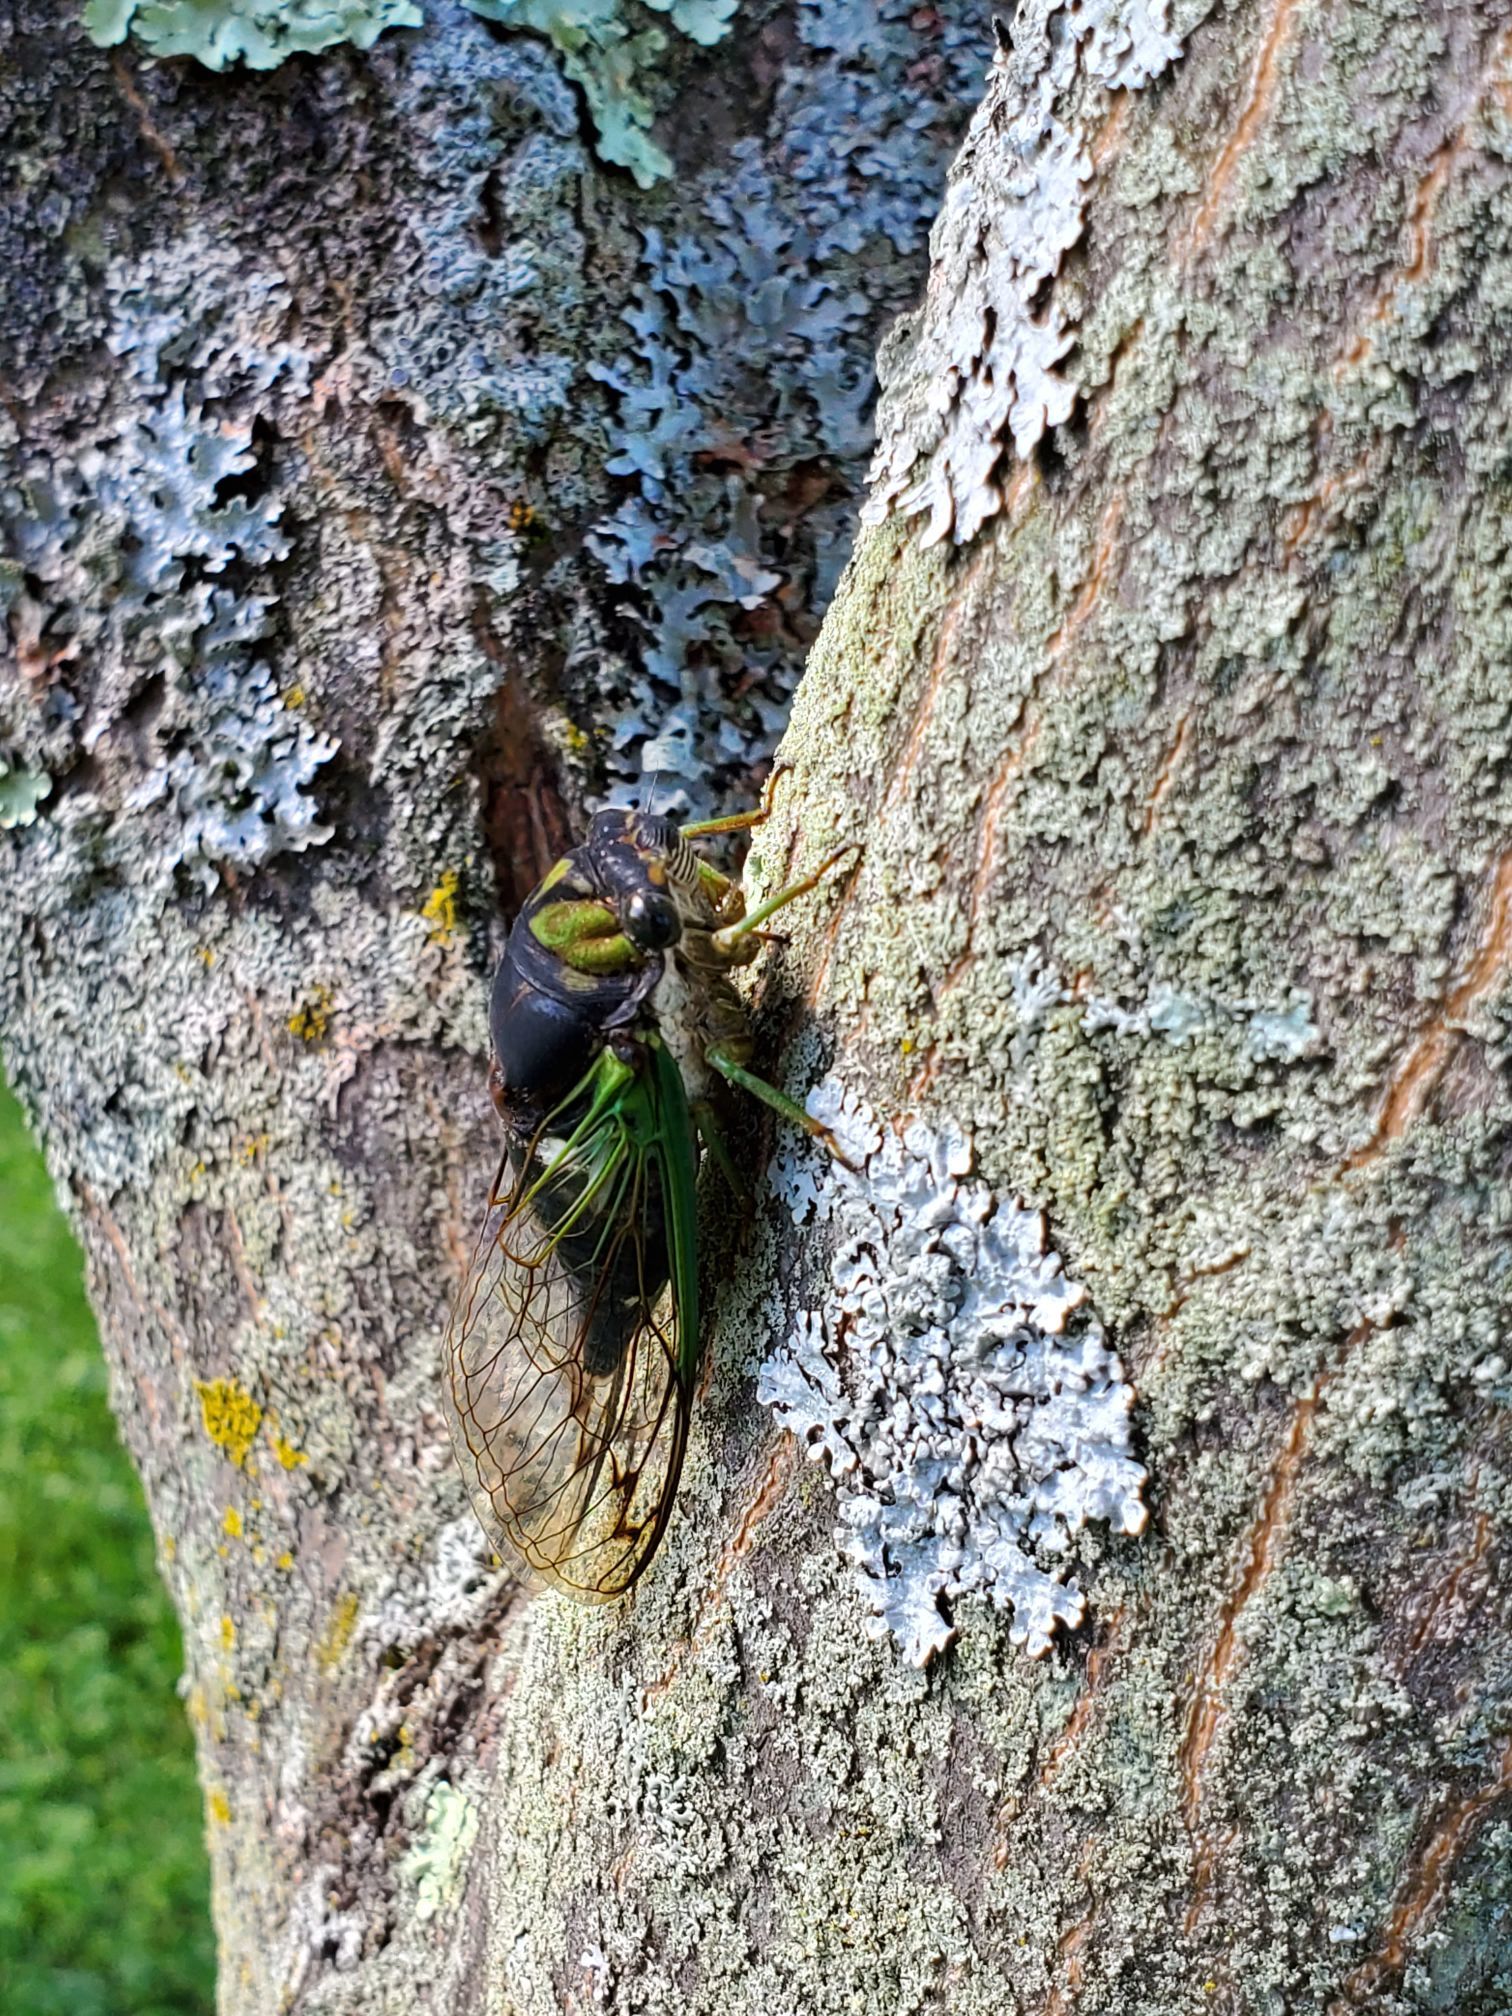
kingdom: Animalia
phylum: Arthropoda
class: Insecta
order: Hemiptera
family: Cicadidae
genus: Neotibicen
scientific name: Neotibicen tibicen
